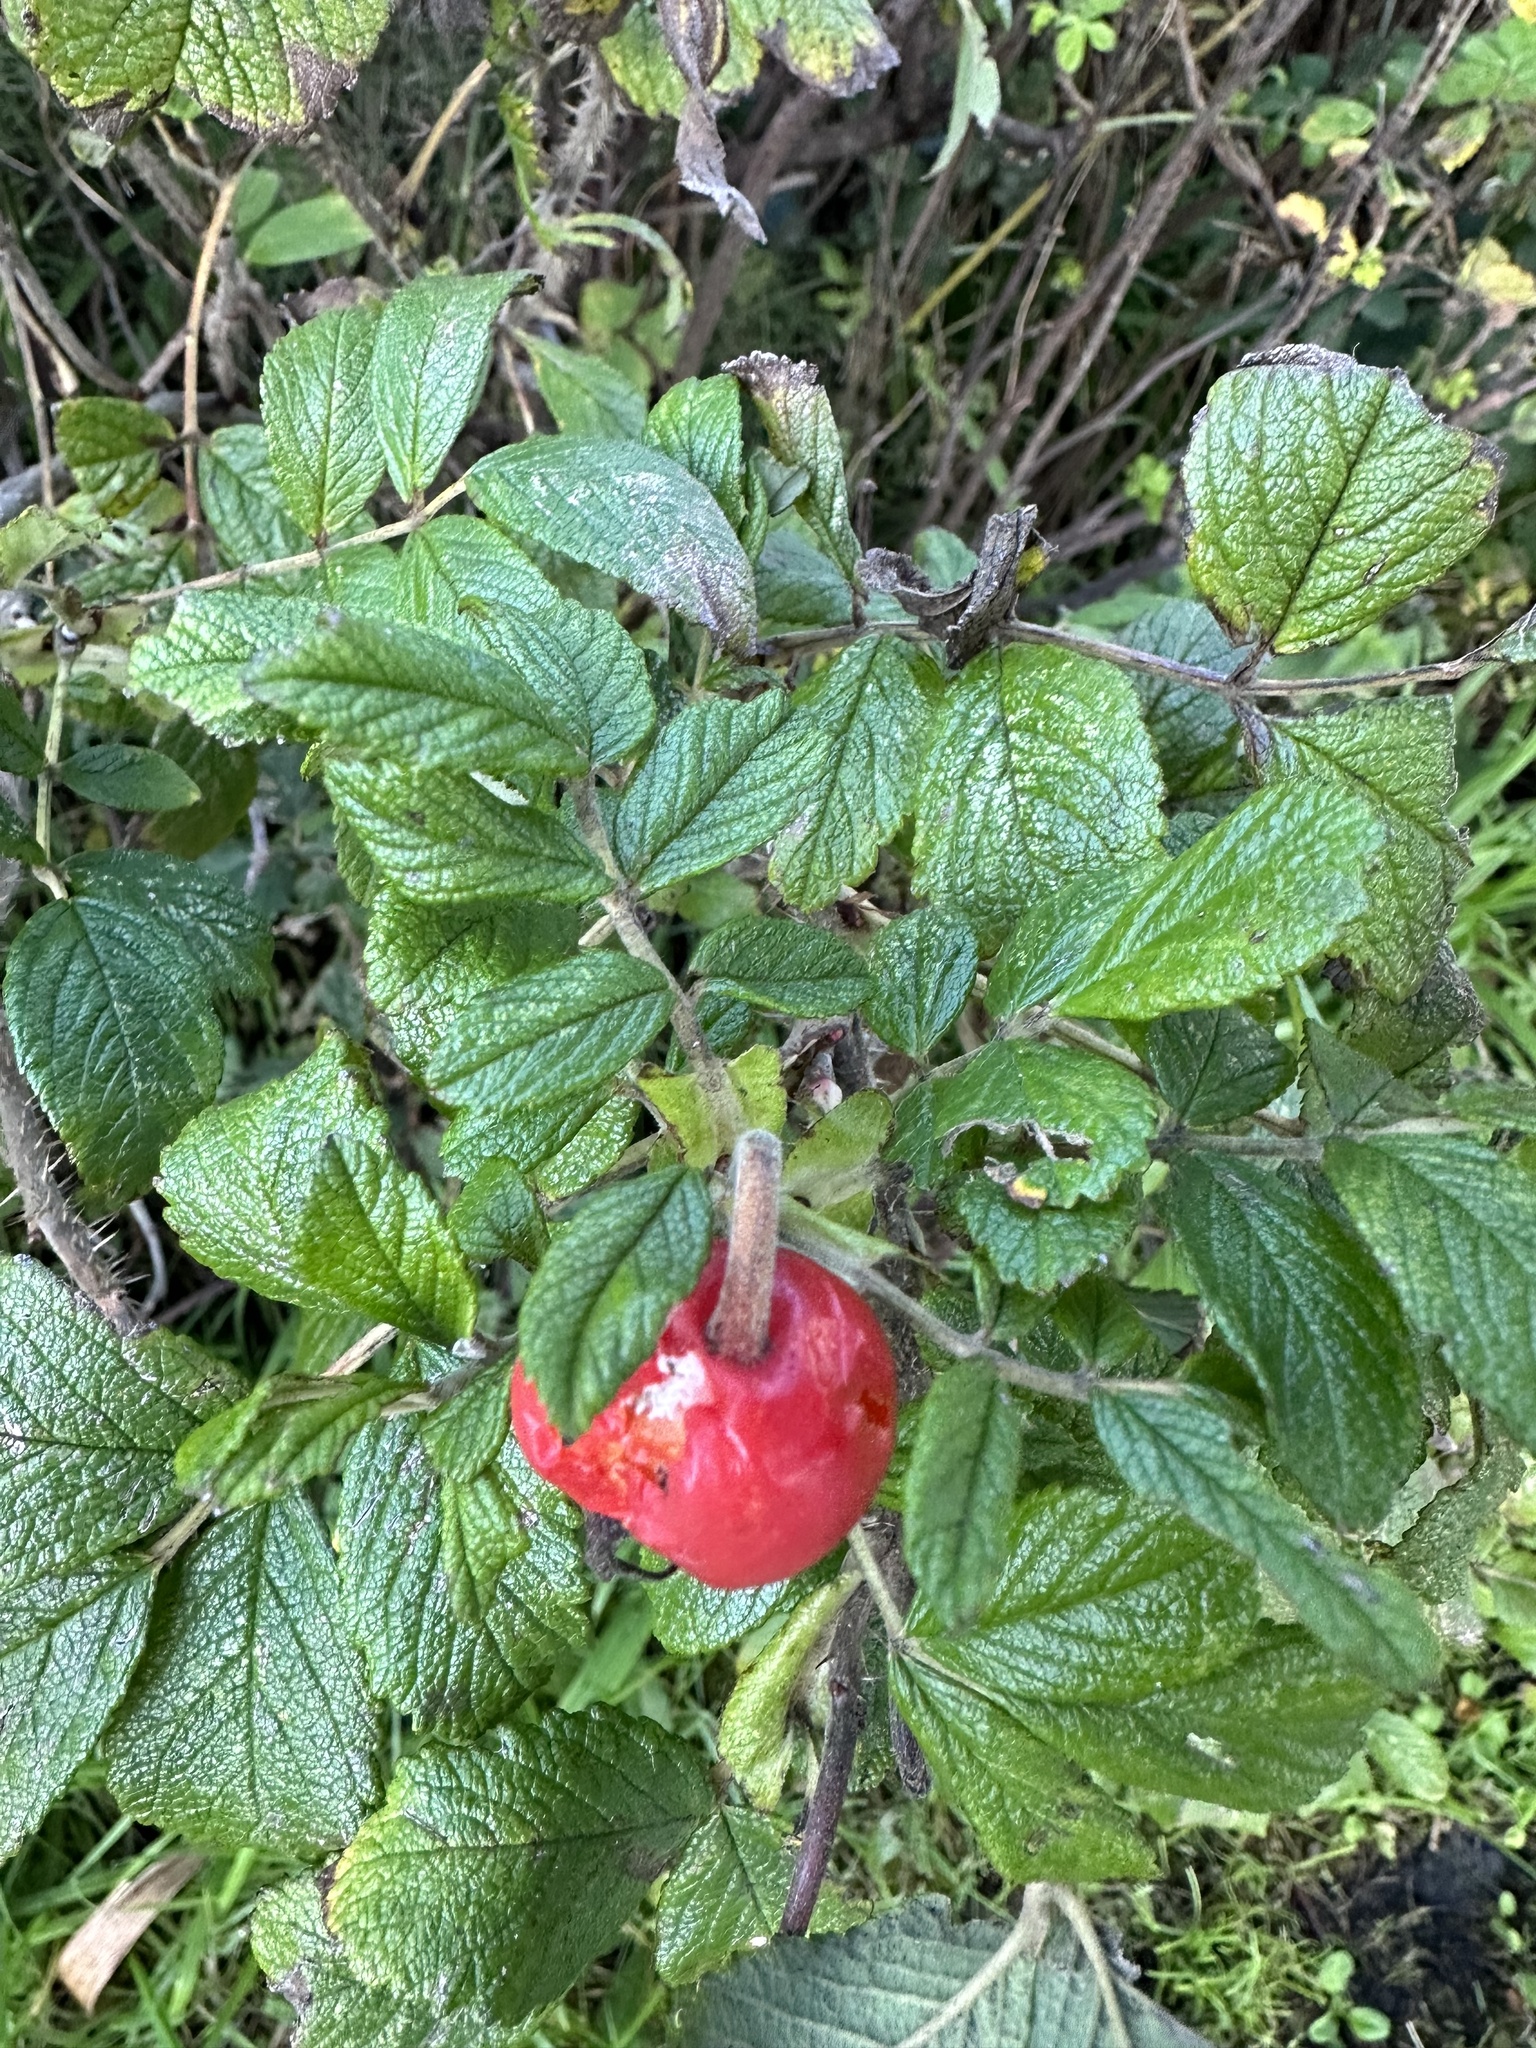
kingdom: Plantae
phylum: Tracheophyta
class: Magnoliopsida
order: Rosales
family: Rosaceae
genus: Rosa
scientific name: Rosa rugosa
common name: Japanese rose
